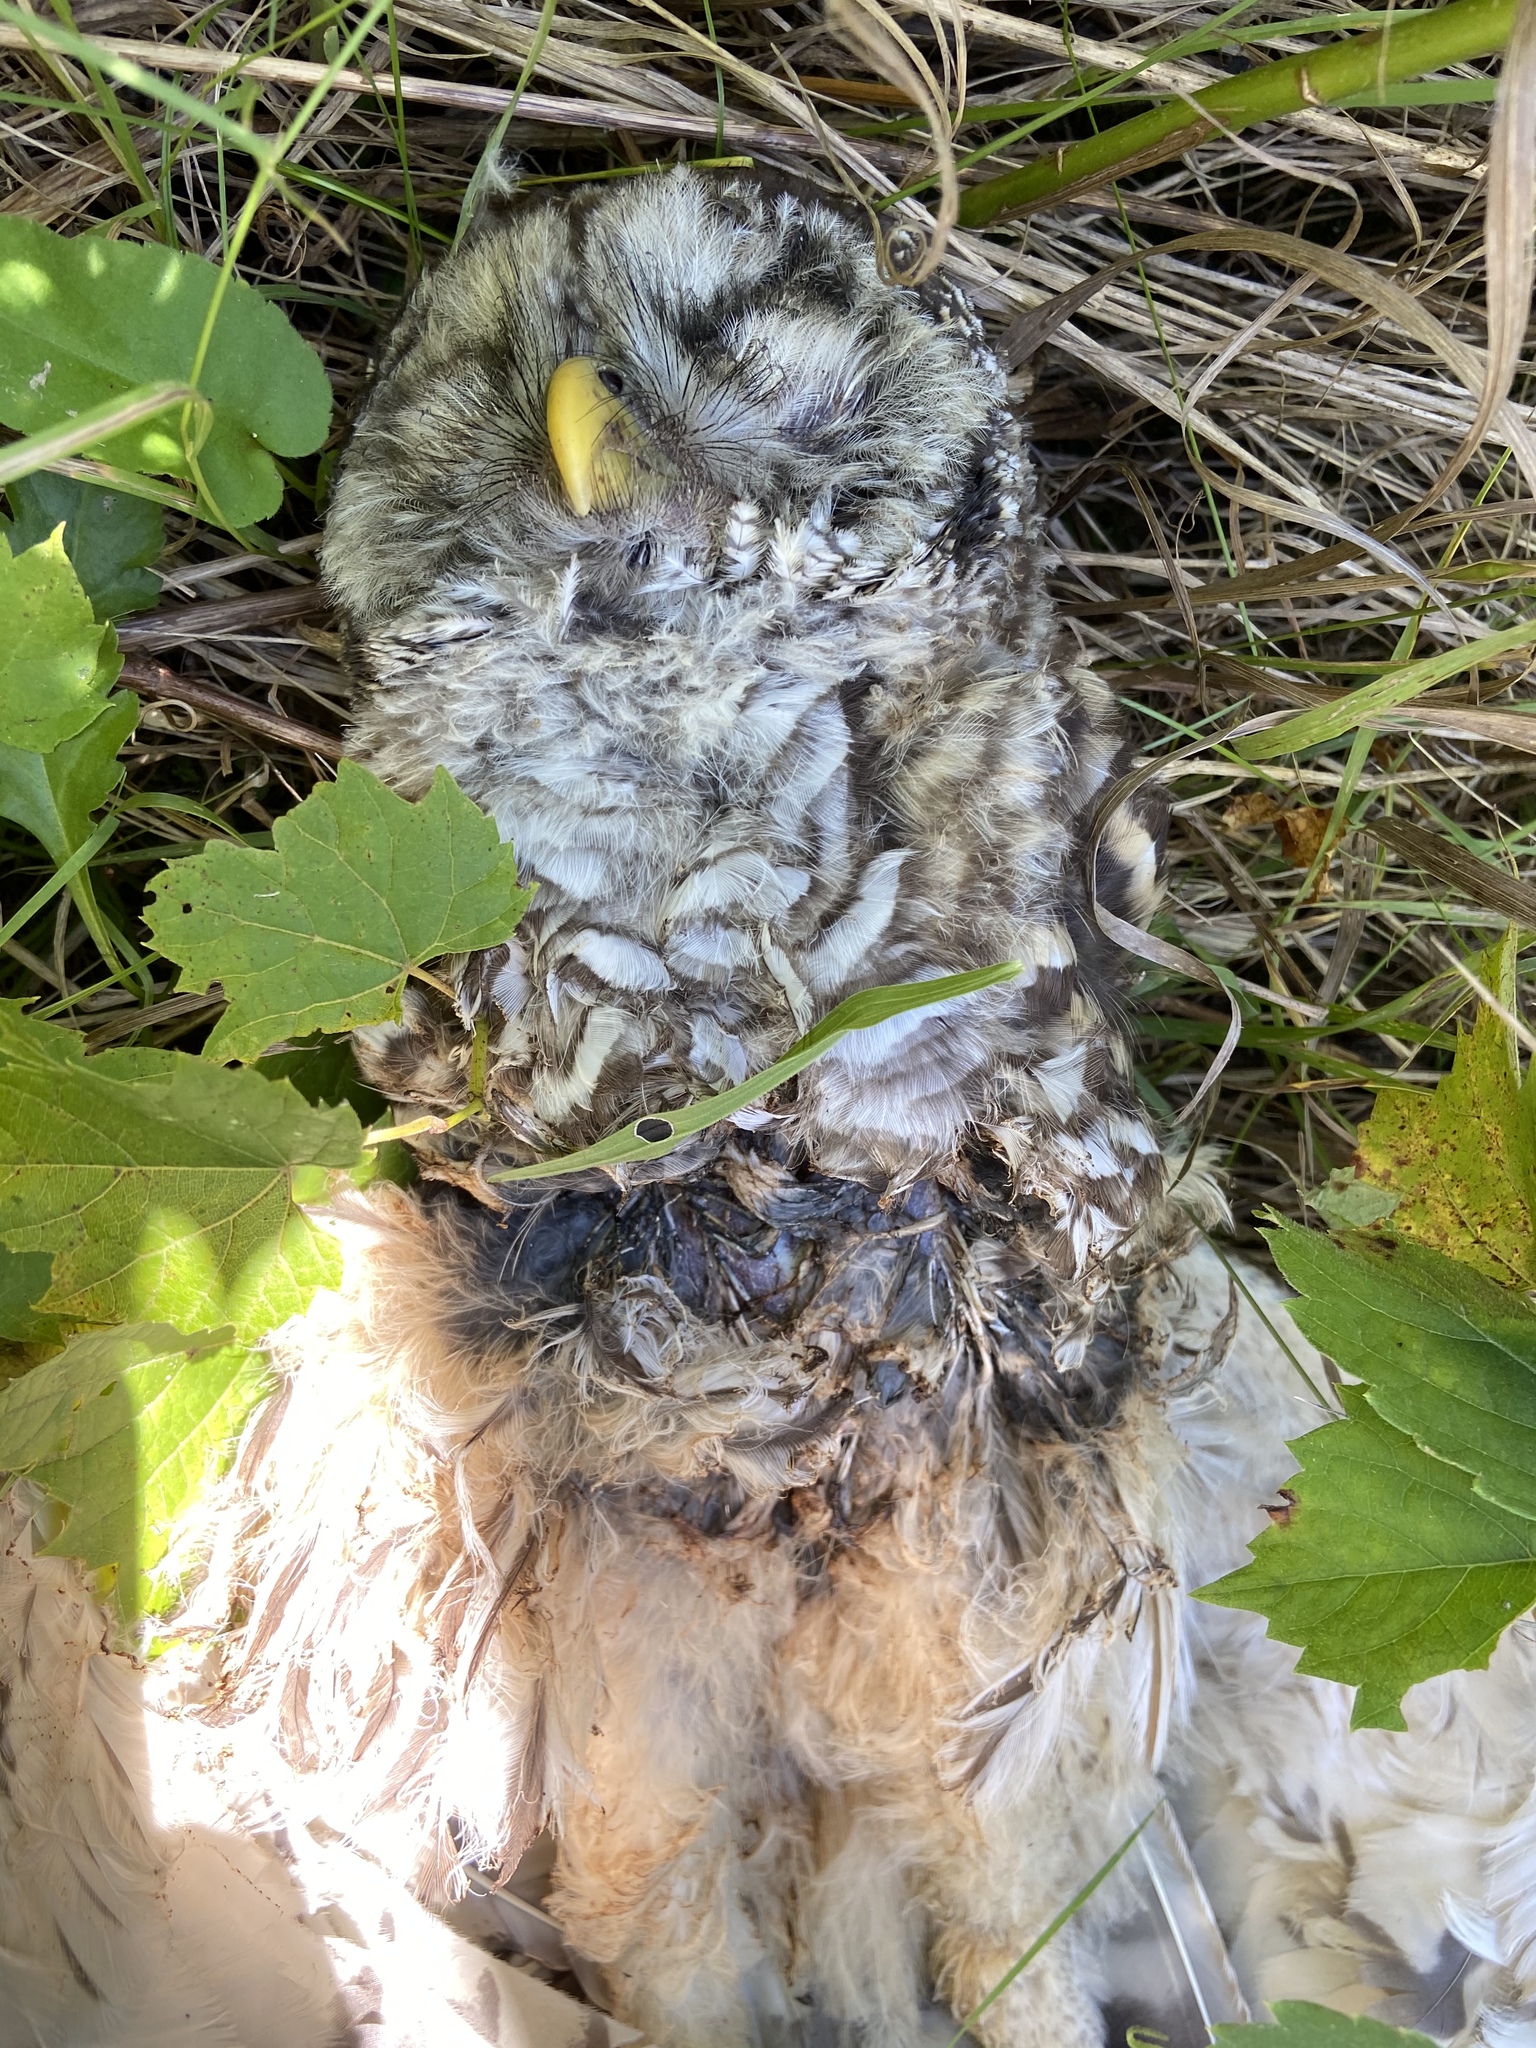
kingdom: Animalia
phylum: Chordata
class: Aves
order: Strigiformes
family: Strigidae
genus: Strix
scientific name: Strix varia
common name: Barred owl
